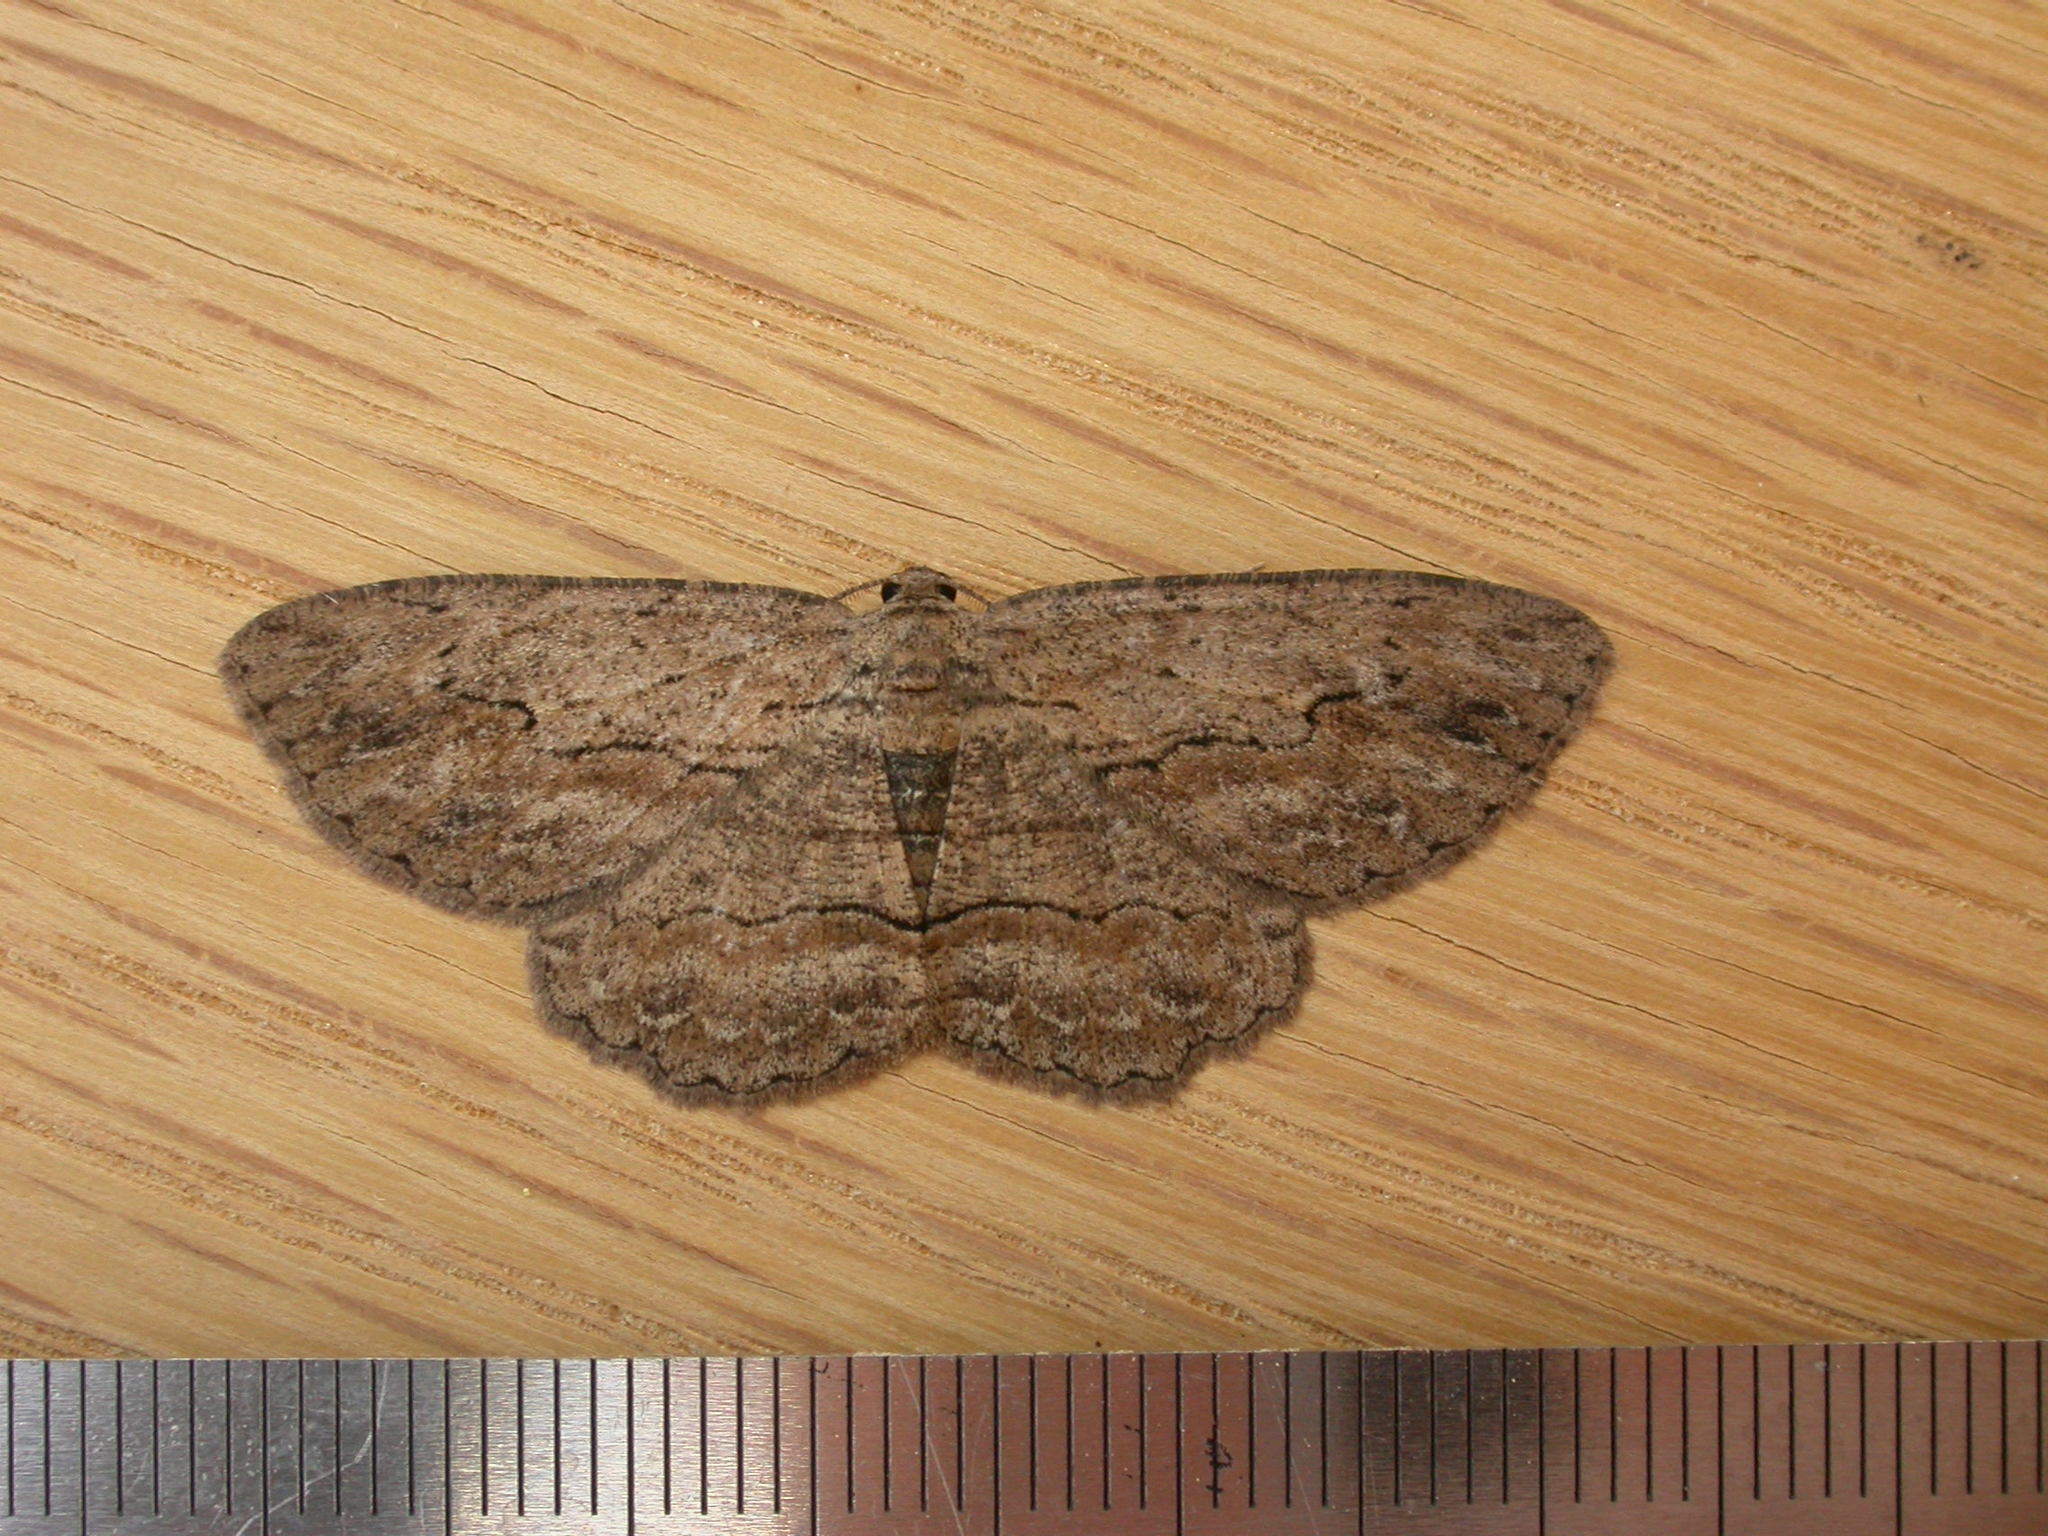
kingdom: Animalia
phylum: Arthropoda
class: Insecta
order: Lepidoptera
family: Geometridae
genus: Ectropis
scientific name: Ectropis excursaria
